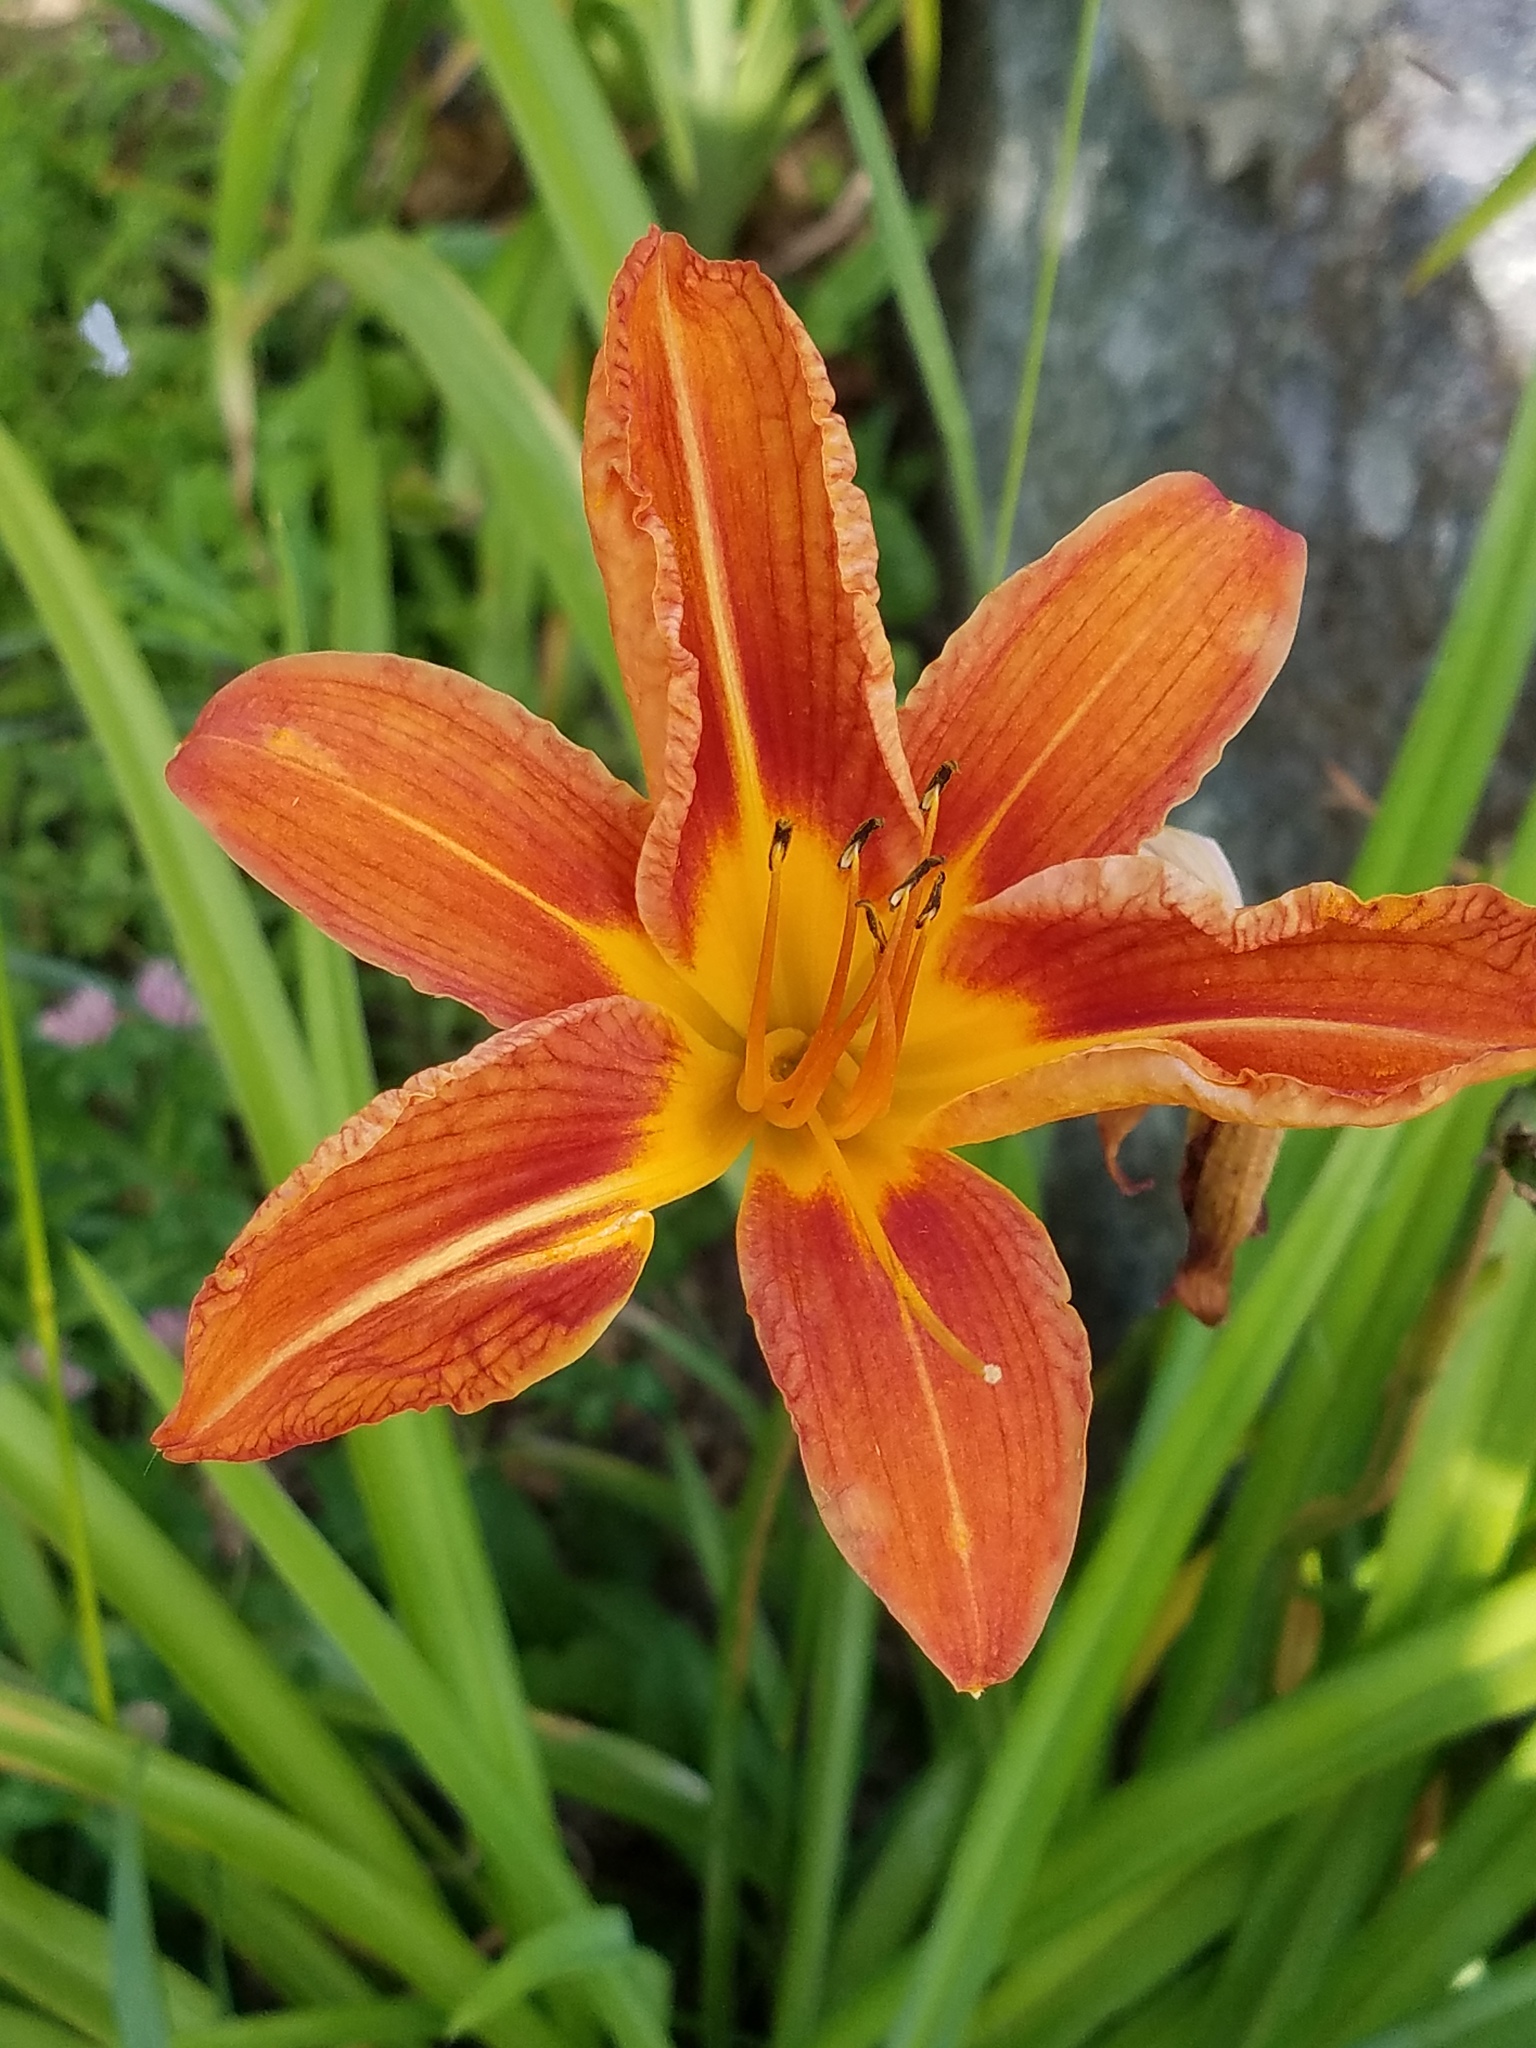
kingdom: Plantae
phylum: Tracheophyta
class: Liliopsida
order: Asparagales
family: Asphodelaceae
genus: Hemerocallis
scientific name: Hemerocallis fulva
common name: Orange day-lily
